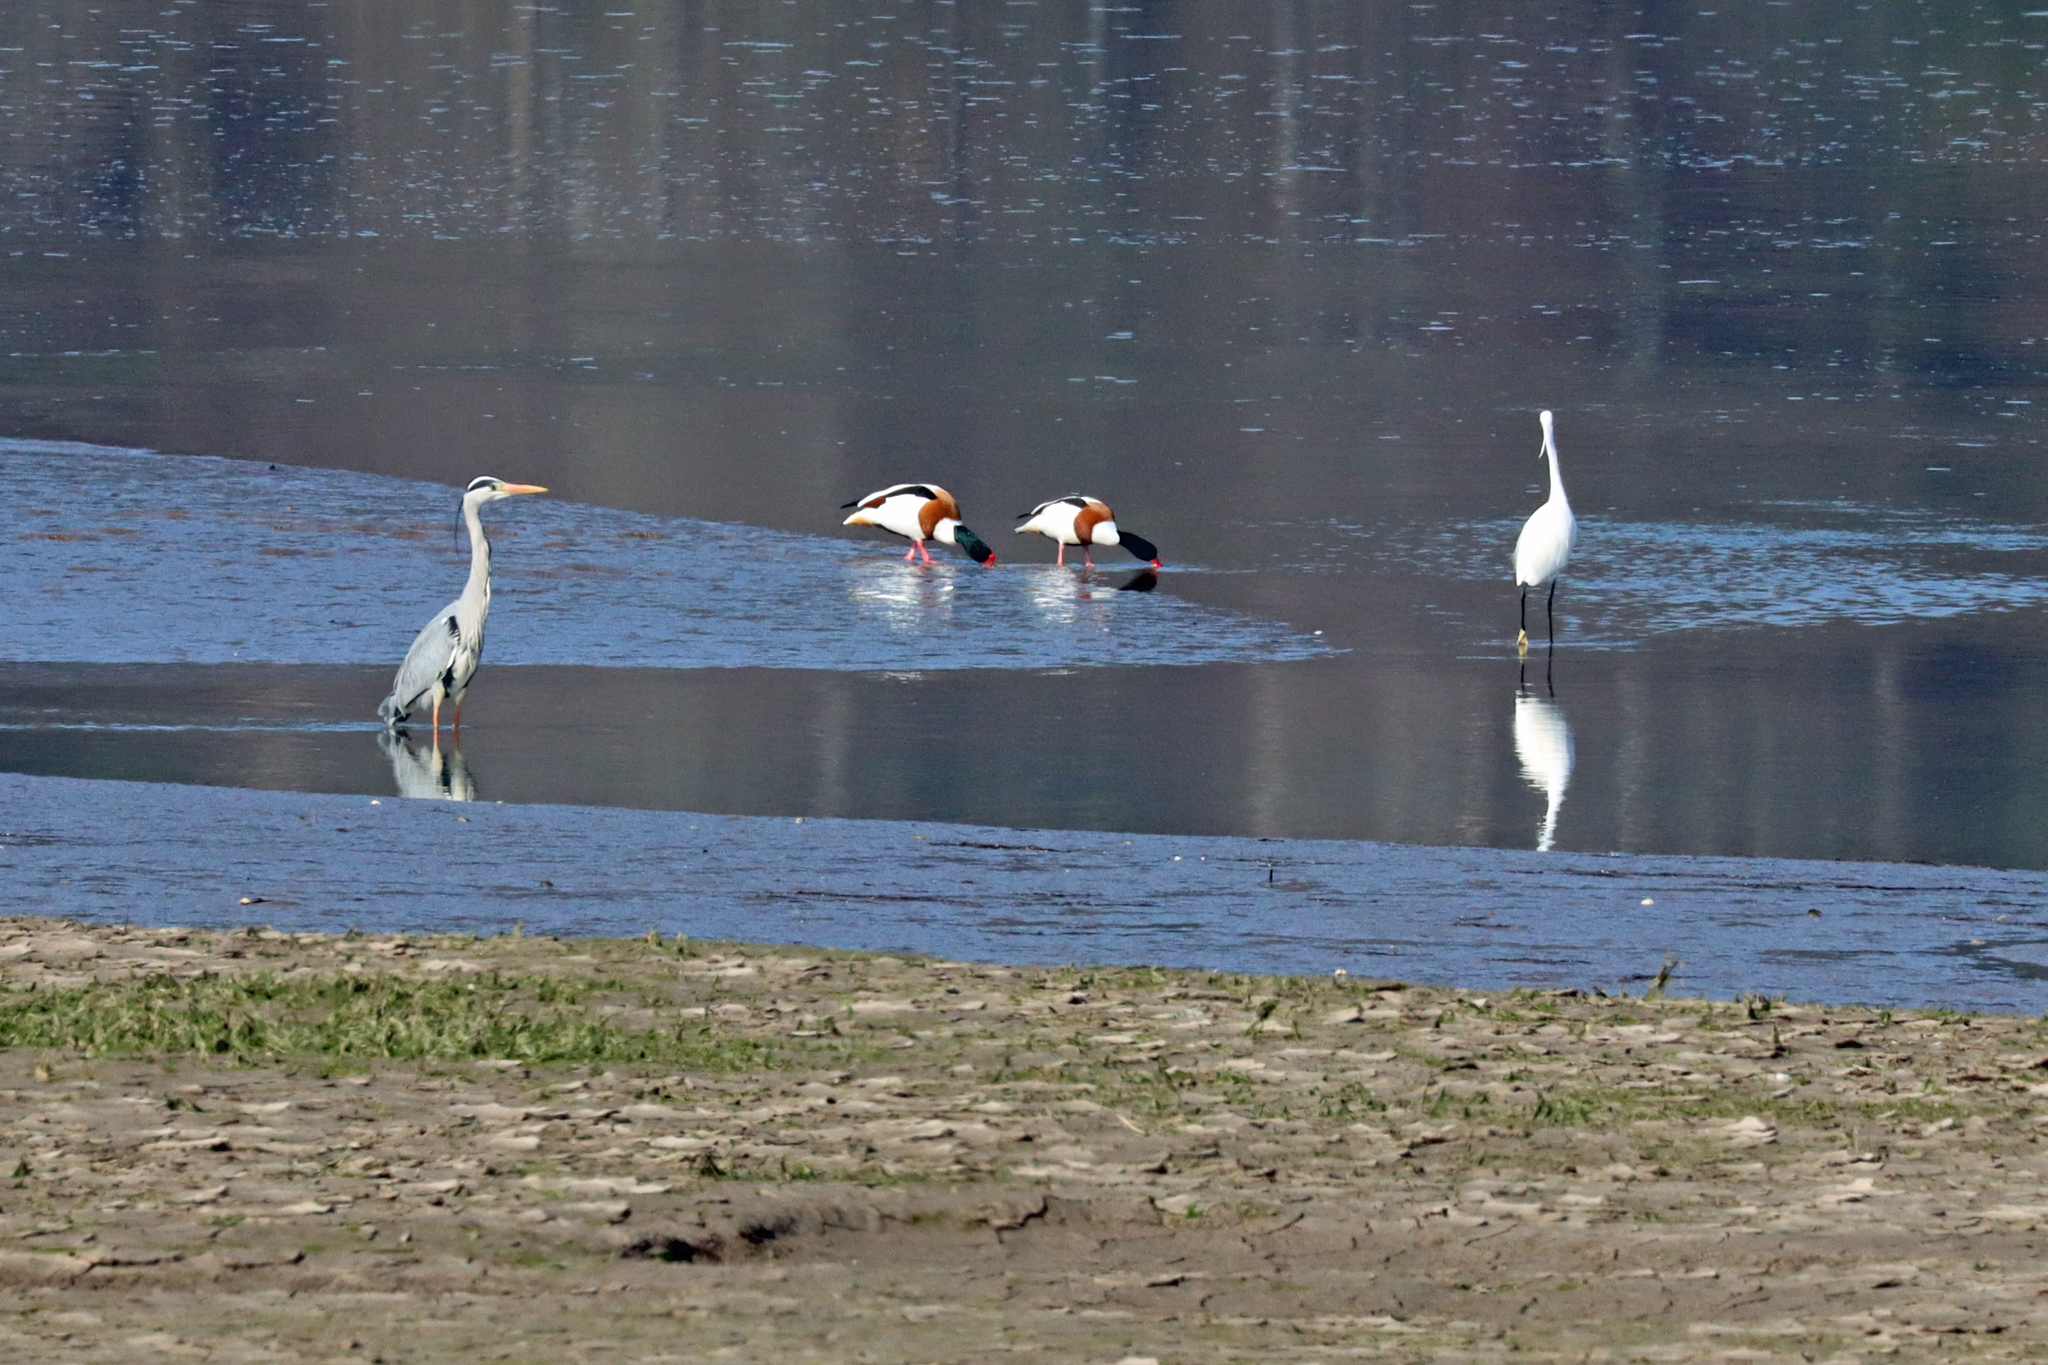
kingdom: Animalia
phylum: Chordata
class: Aves
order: Pelecaniformes
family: Ardeidae
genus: Ardea
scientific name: Ardea cinerea
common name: Grey heron
